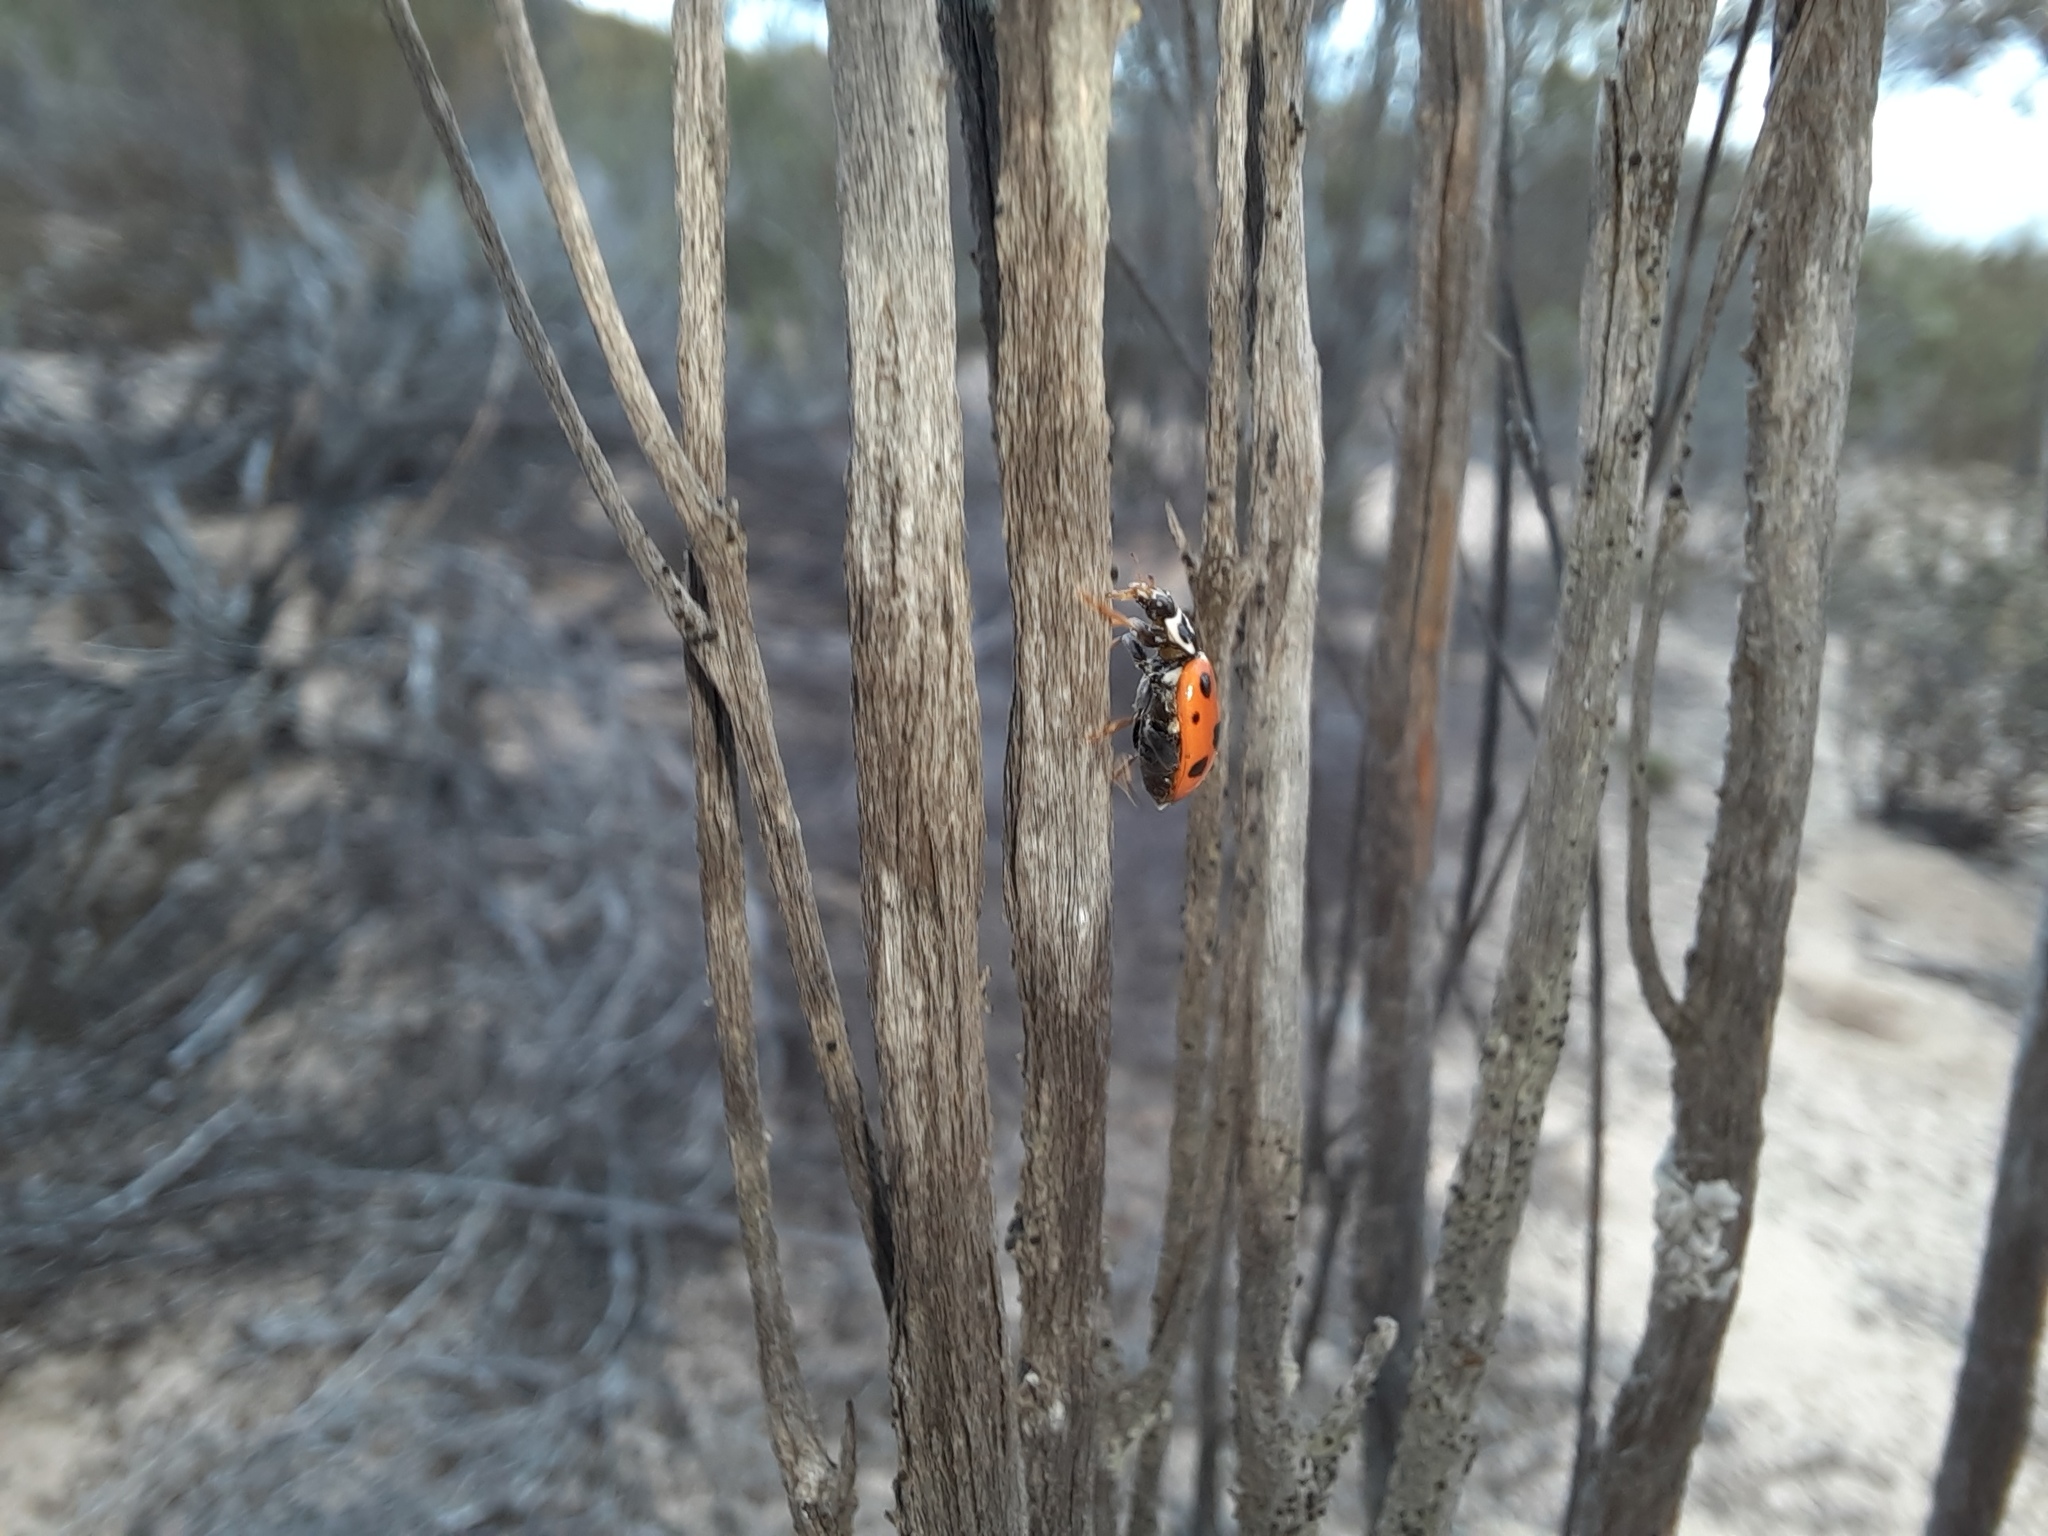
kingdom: Animalia
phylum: Arthropoda
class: Insecta
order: Coleoptera
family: Coccinellidae
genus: Hippodamia
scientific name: Hippodamia variegata
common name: Ladybird beetle
